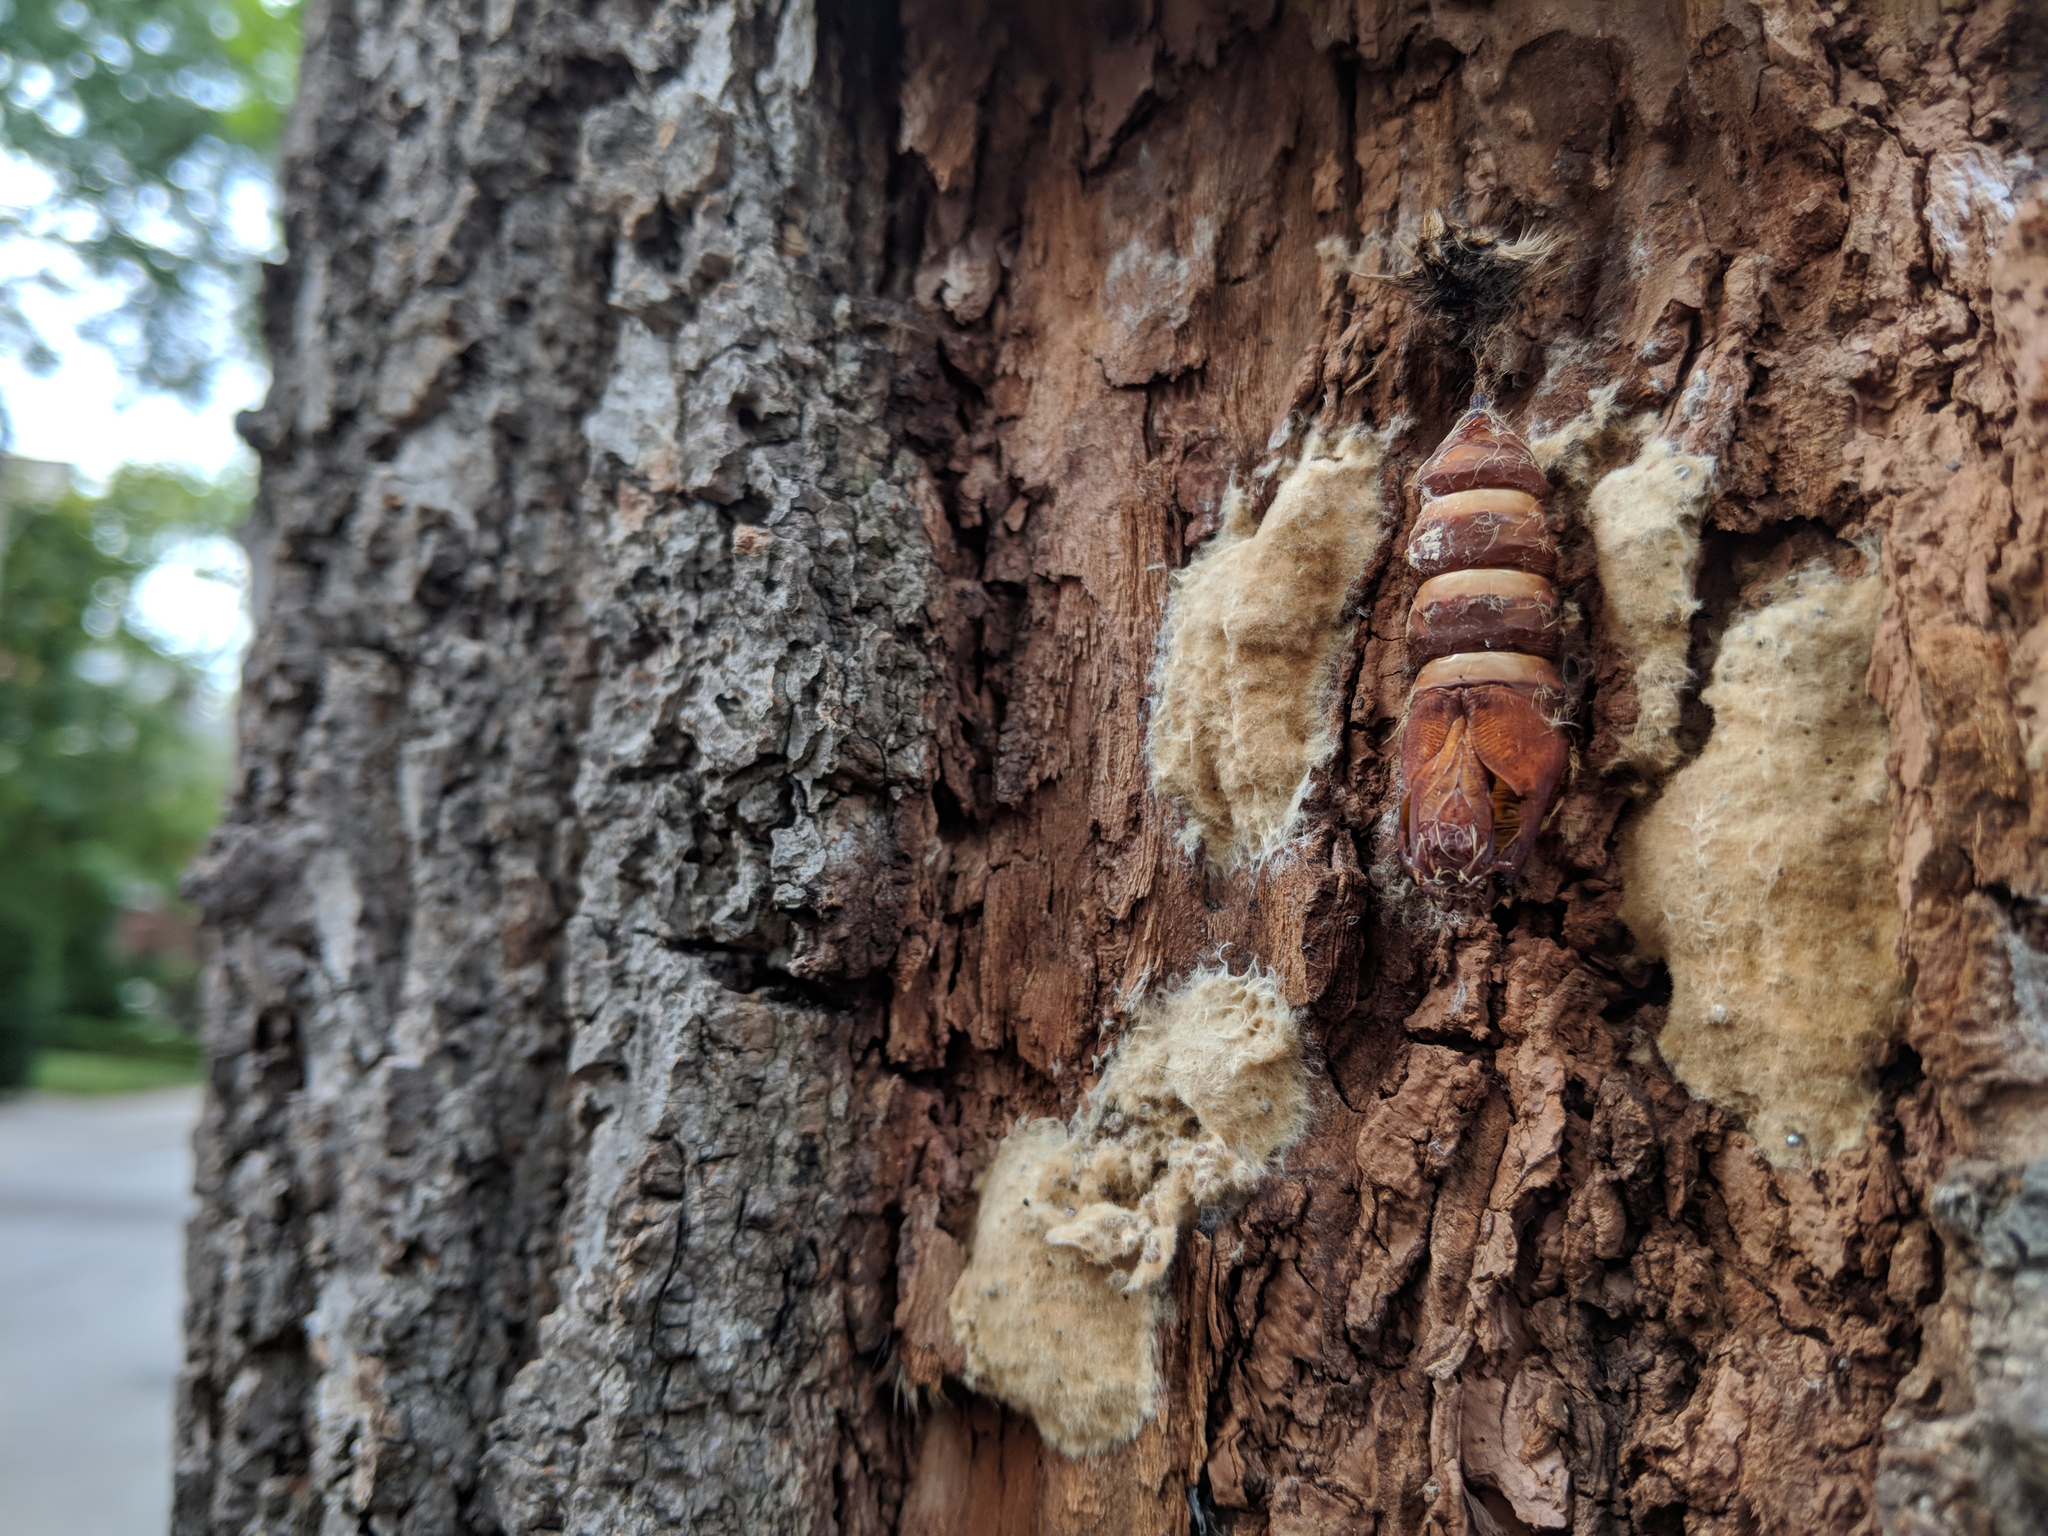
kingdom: Animalia
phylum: Arthropoda
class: Insecta
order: Lepidoptera
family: Erebidae
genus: Lymantria
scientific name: Lymantria dispar
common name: Gypsy moth
